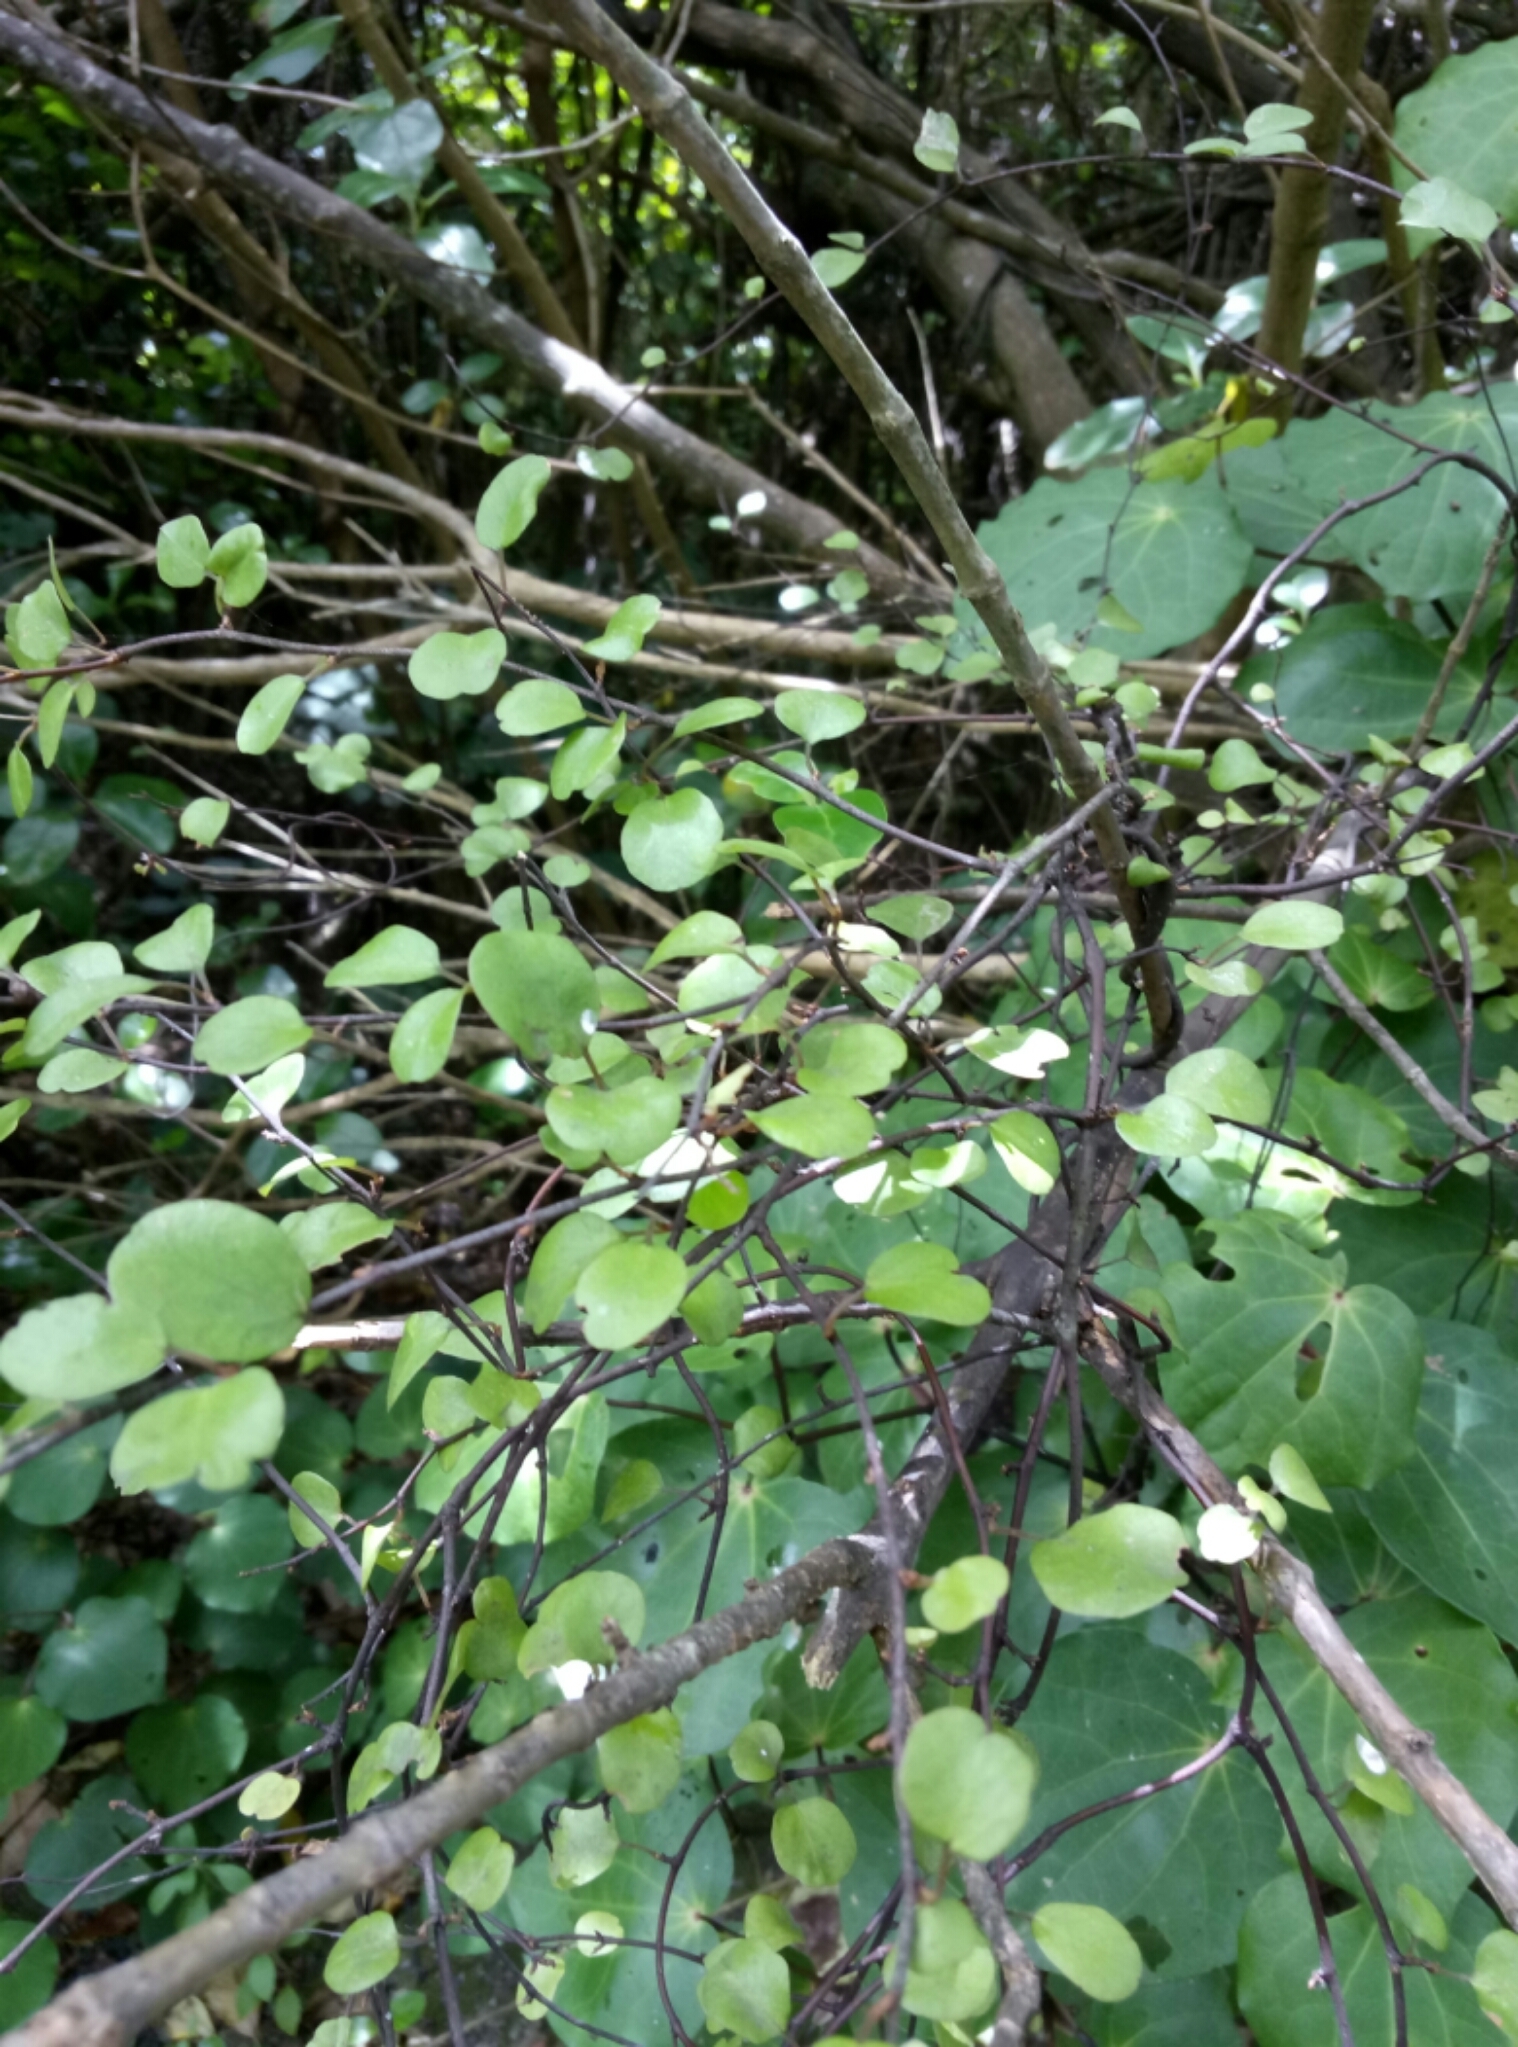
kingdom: Plantae
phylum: Tracheophyta
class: Magnoliopsida
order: Caryophyllales
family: Polygonaceae
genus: Muehlenbeckia
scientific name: Muehlenbeckia complexa
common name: Wireplant
